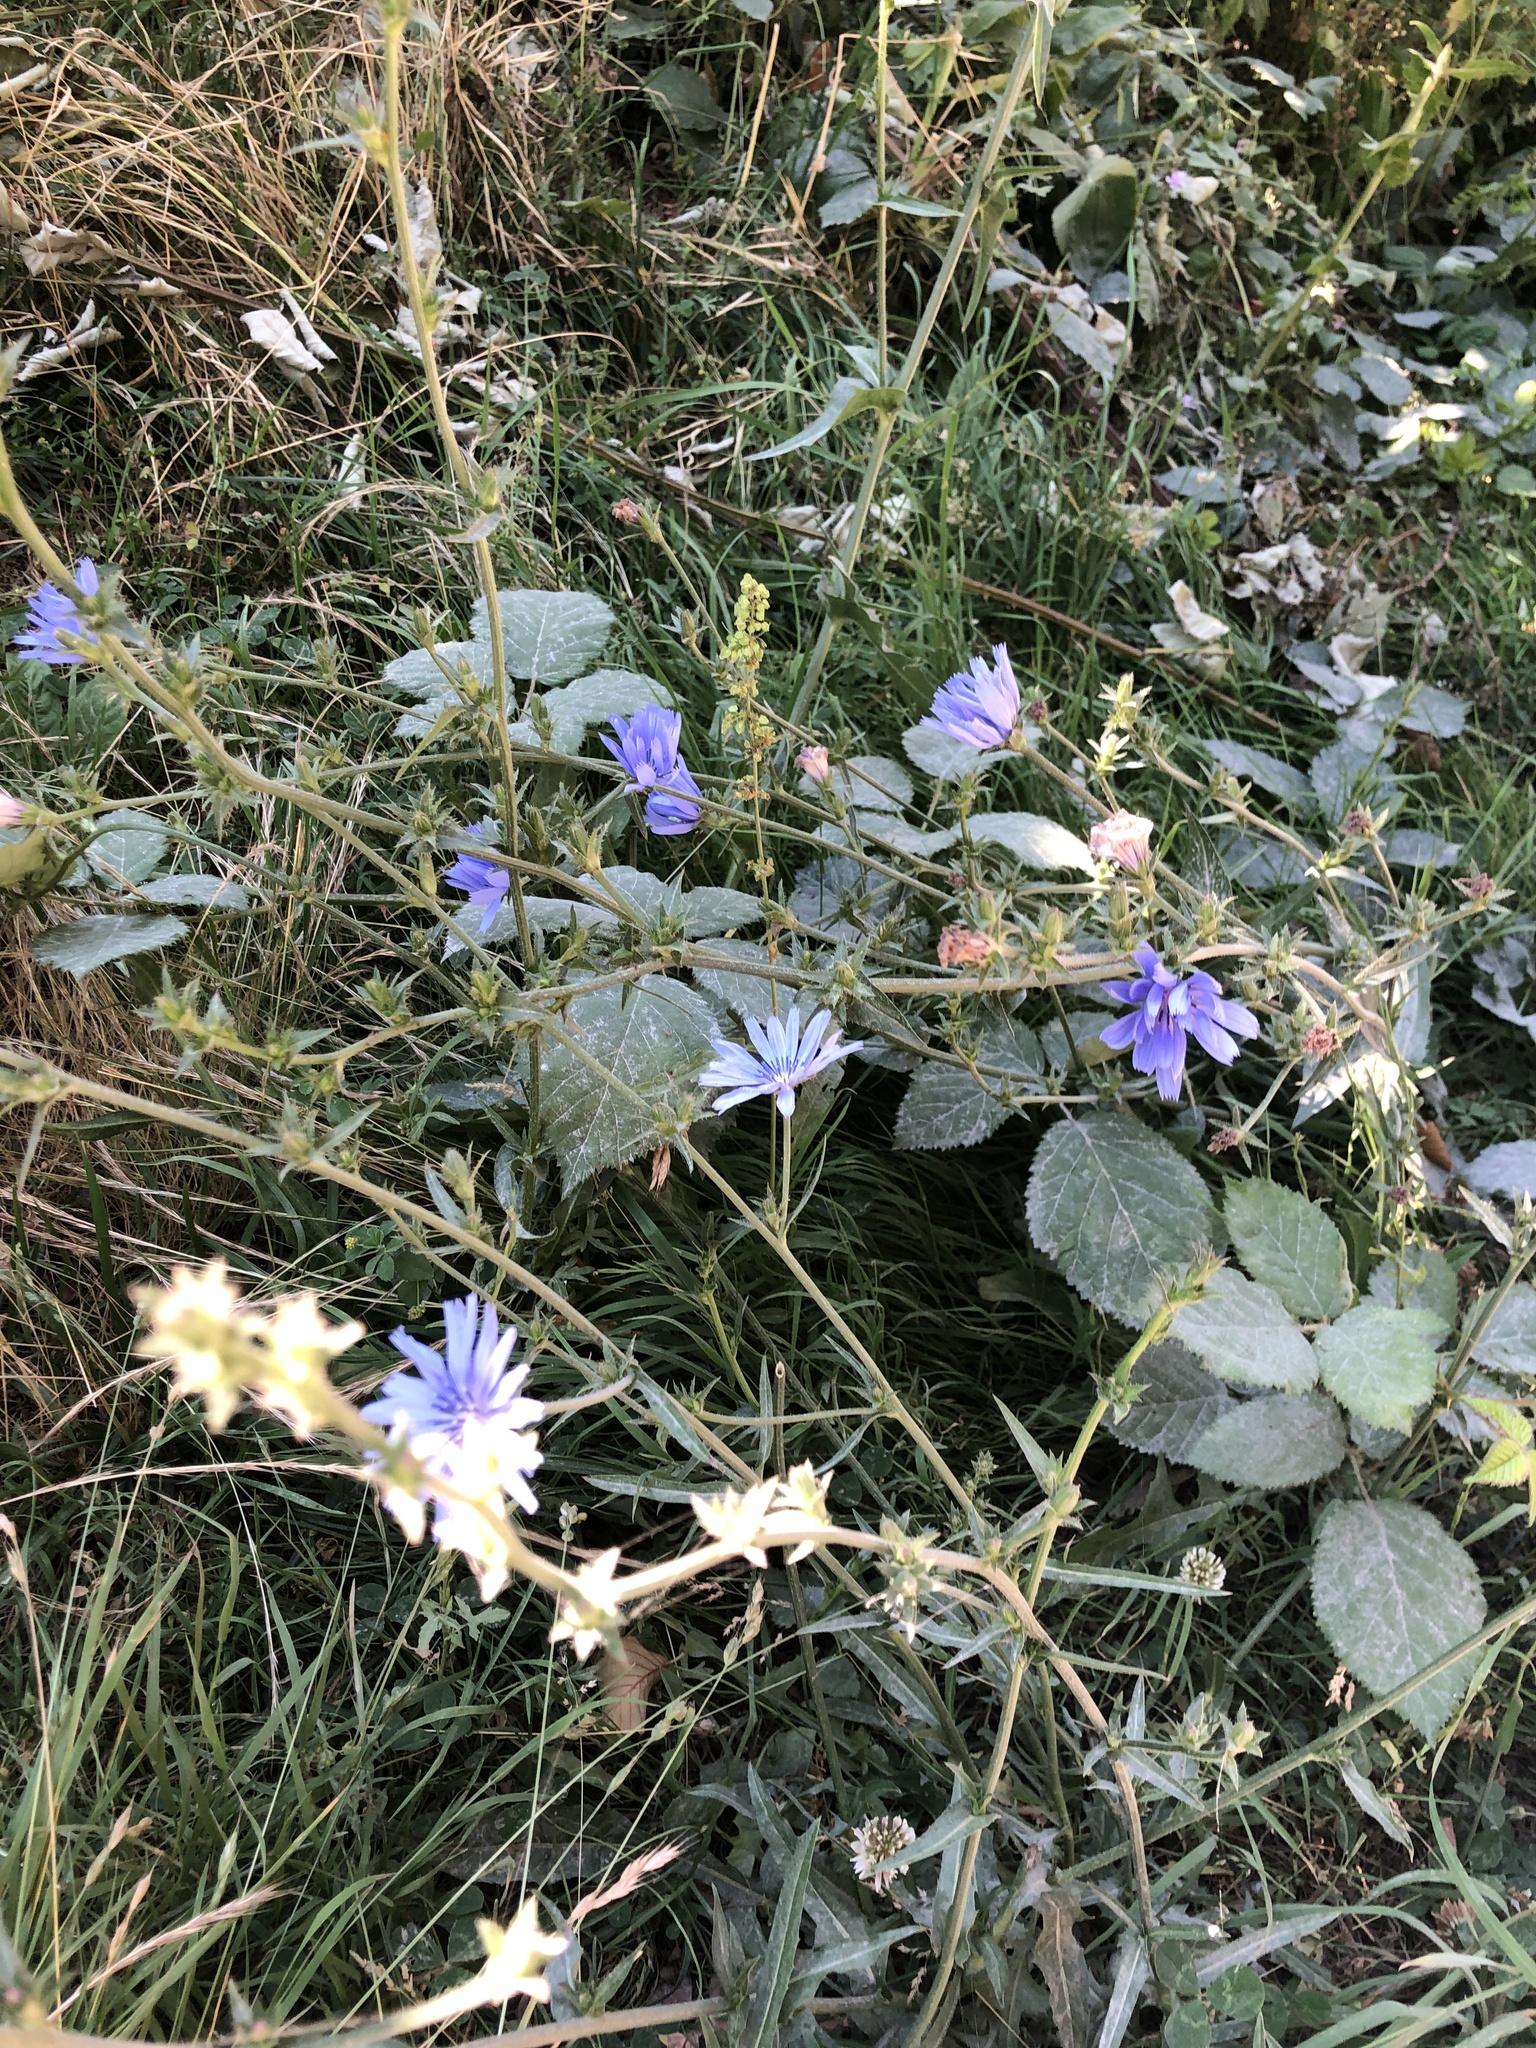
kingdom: Plantae
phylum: Tracheophyta
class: Magnoliopsida
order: Asterales
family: Asteraceae
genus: Cichorium
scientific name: Cichorium intybus
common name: Chicory
